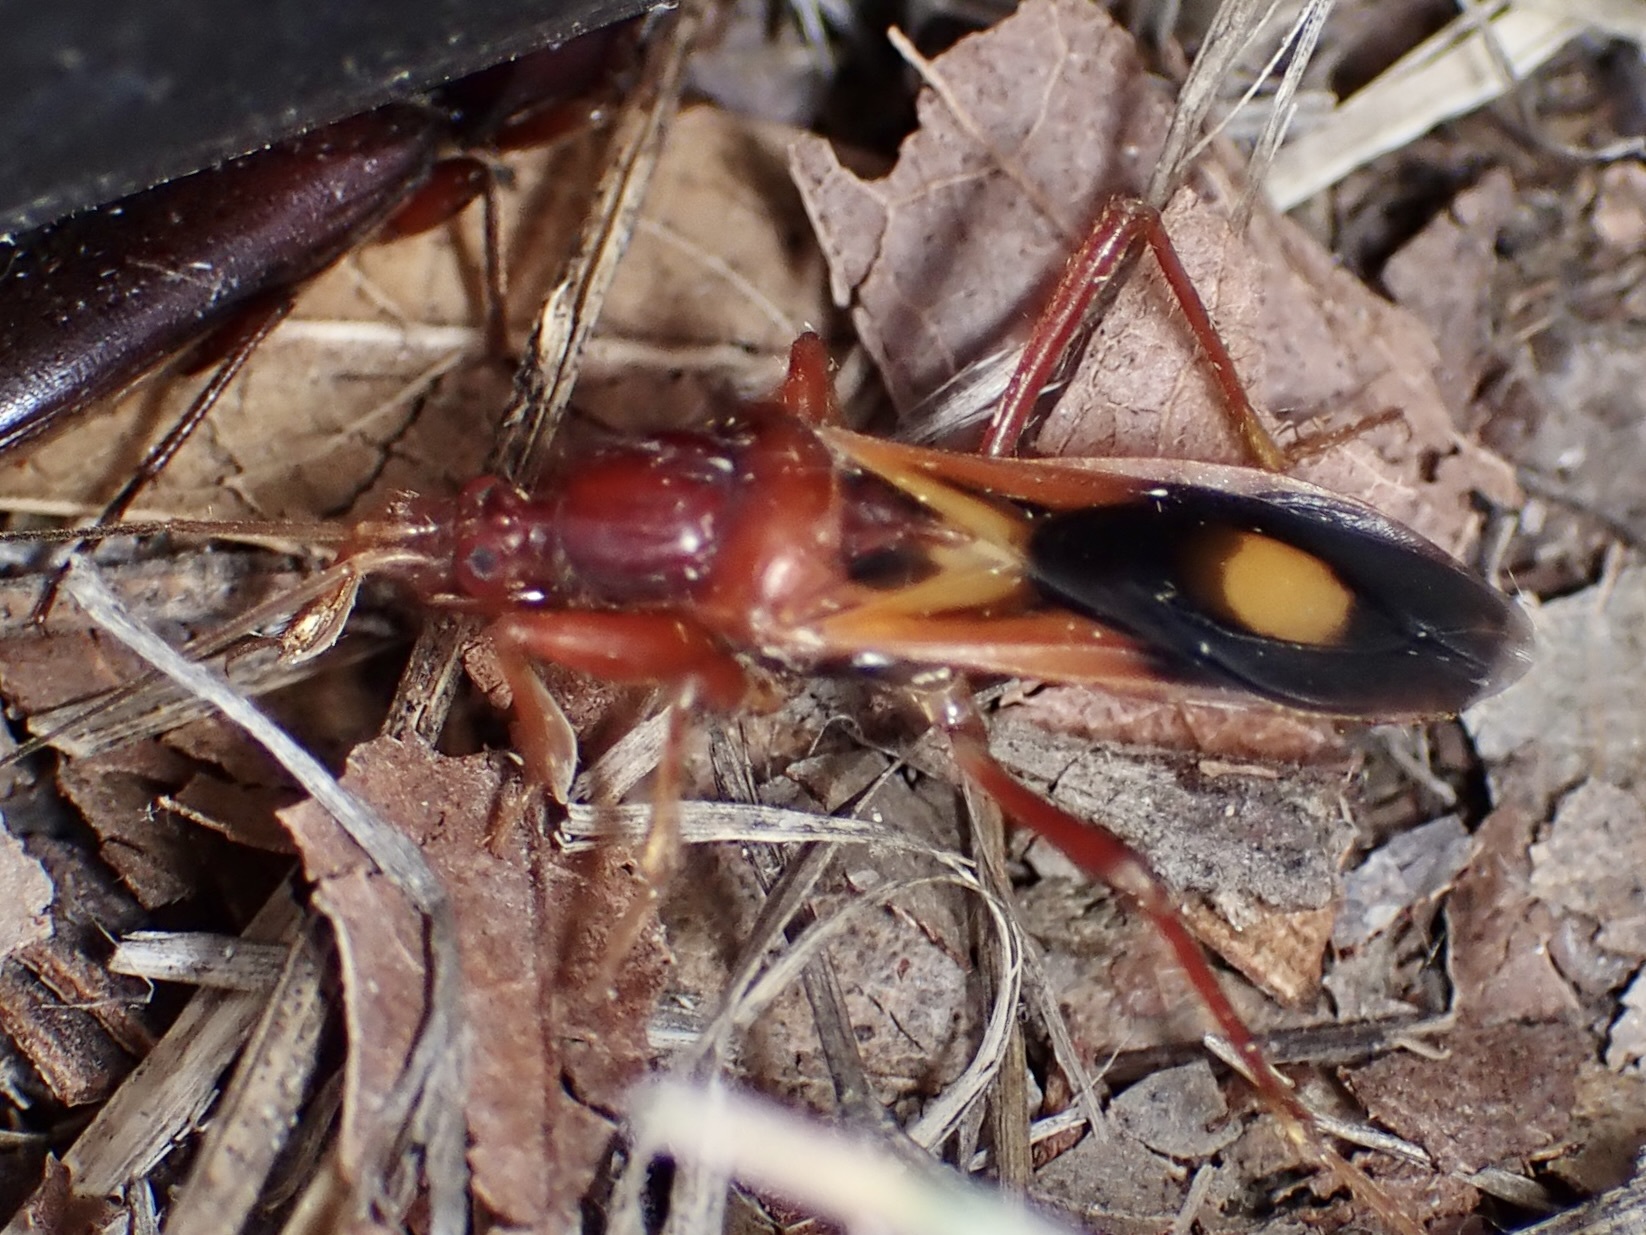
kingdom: Animalia
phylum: Arthropoda
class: Insecta
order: Hemiptera
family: Reduviidae
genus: Rasahus
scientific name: Rasahus thoracicus
